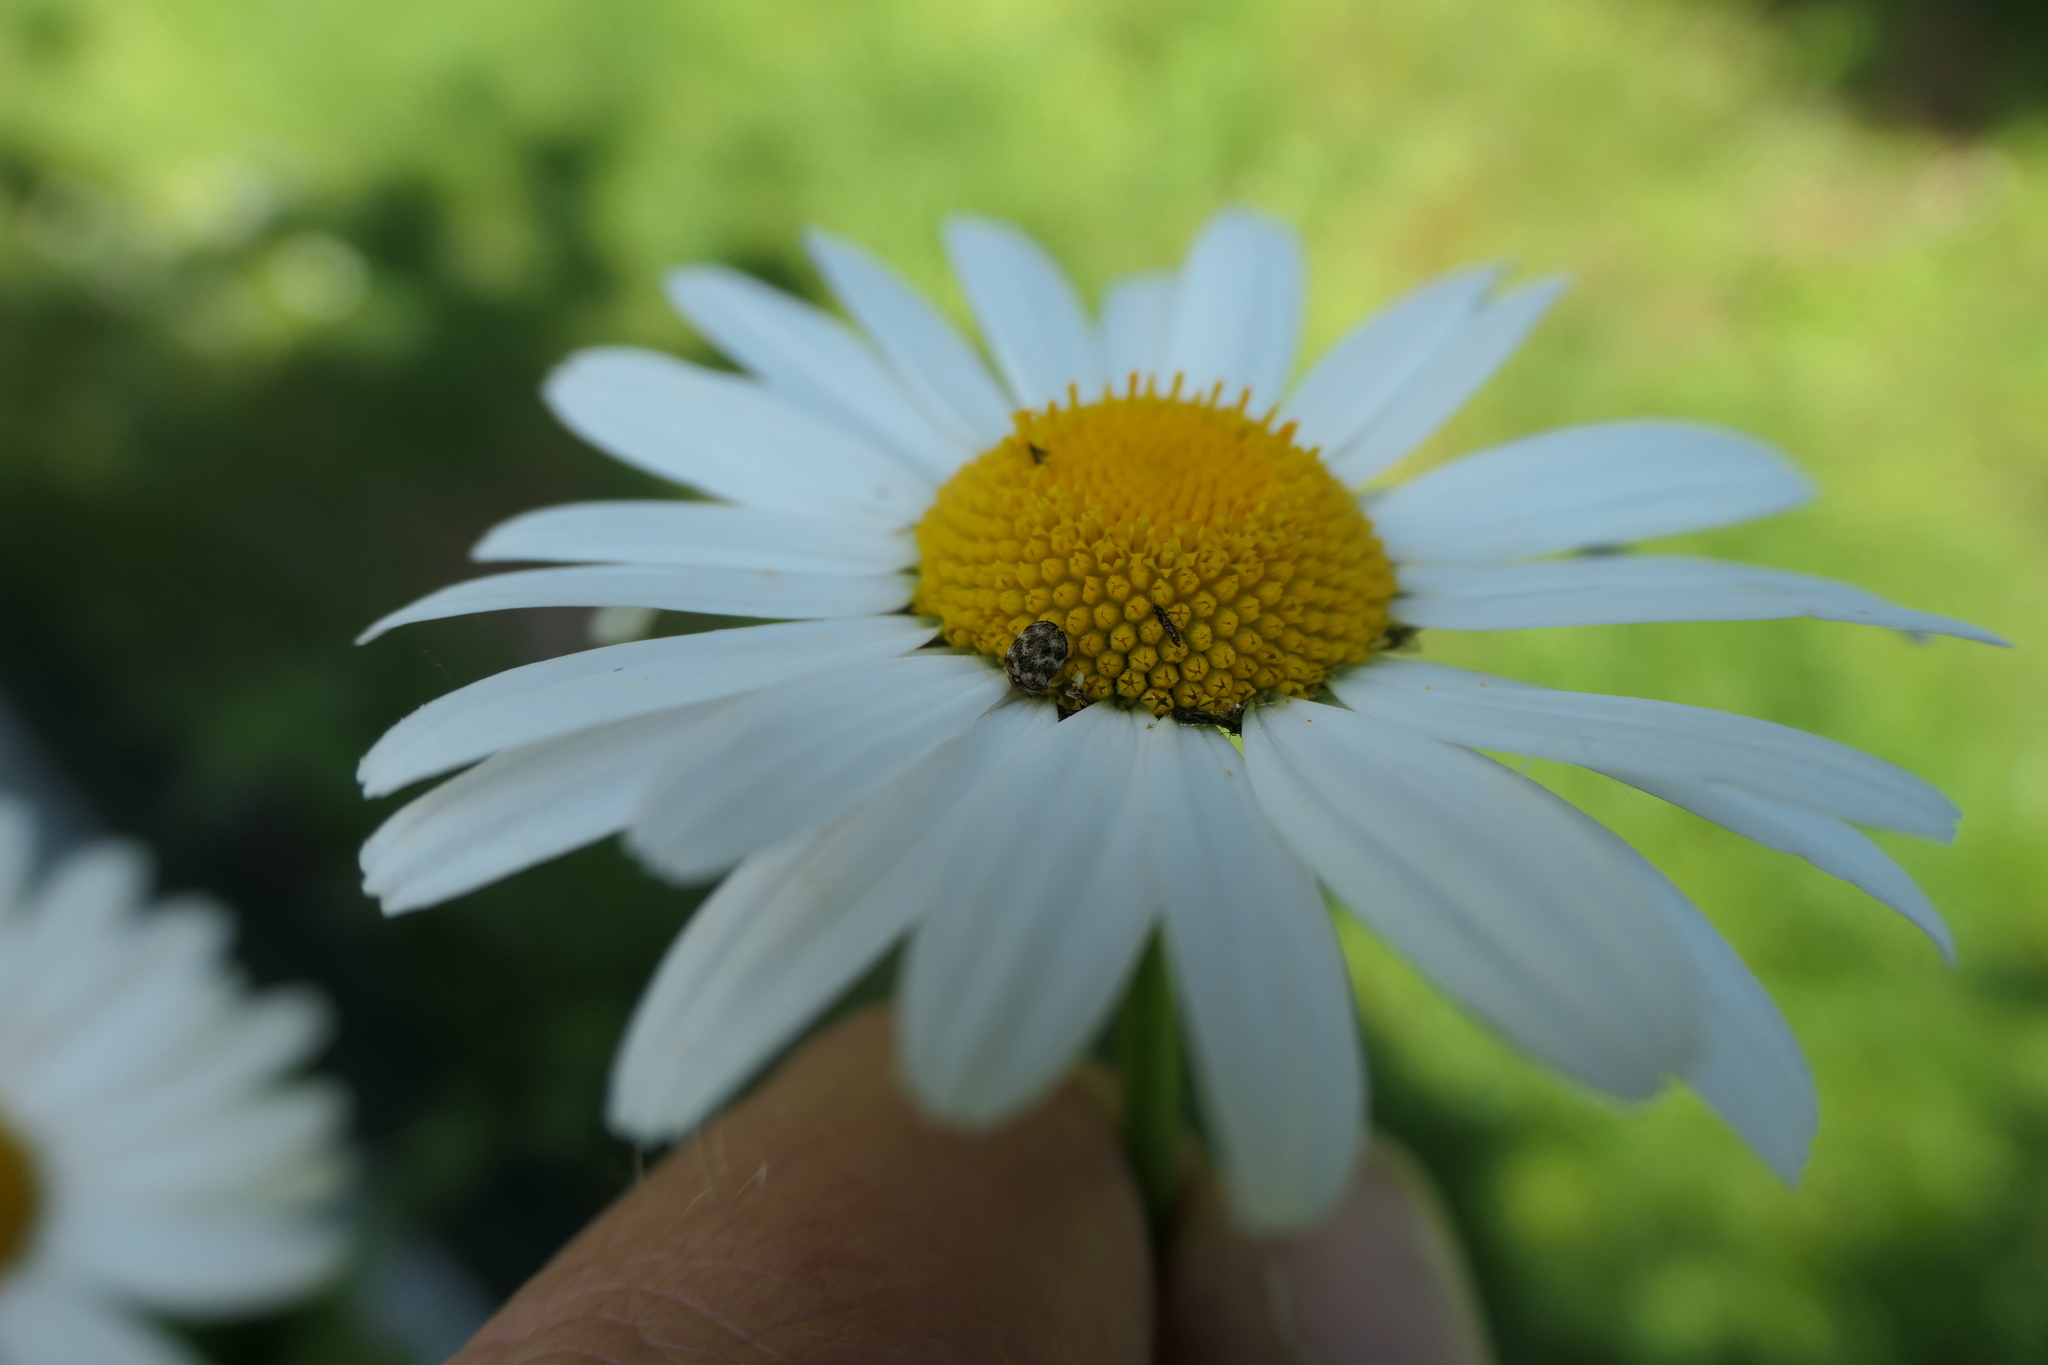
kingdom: Animalia
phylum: Arthropoda
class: Insecta
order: Coleoptera
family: Dermestidae
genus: Anthrenus
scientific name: Anthrenus verbasci
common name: Varied carpet beetle
